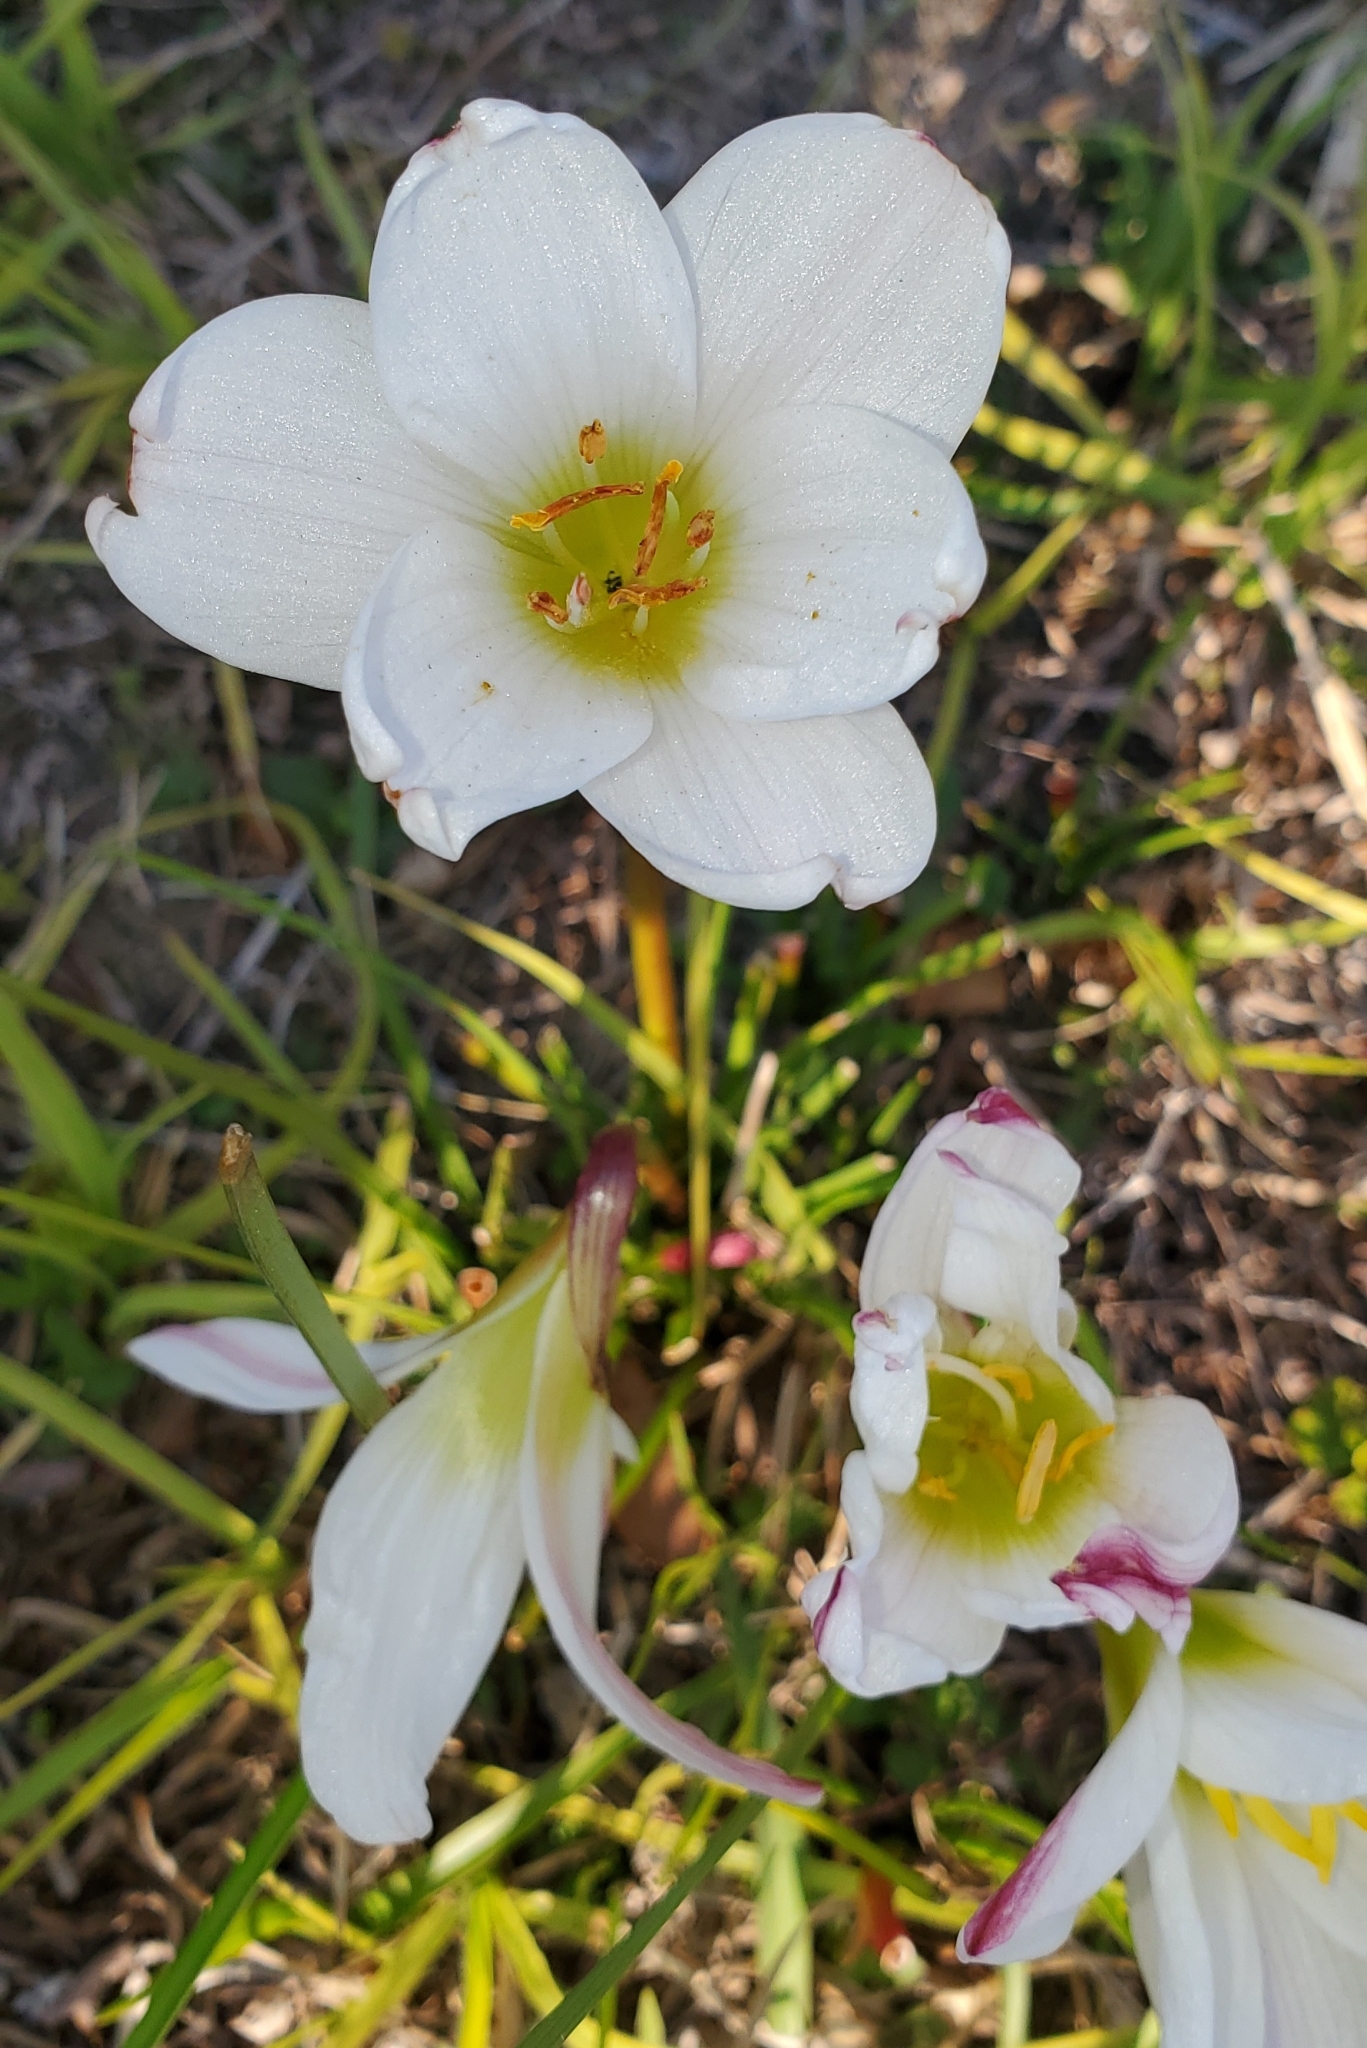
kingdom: Plantae
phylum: Tracheophyta
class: Liliopsida
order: Asparagales
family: Amaryllidaceae
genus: Zephyranthes
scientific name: Zephyranthes atamasco
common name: Atamasco lily
